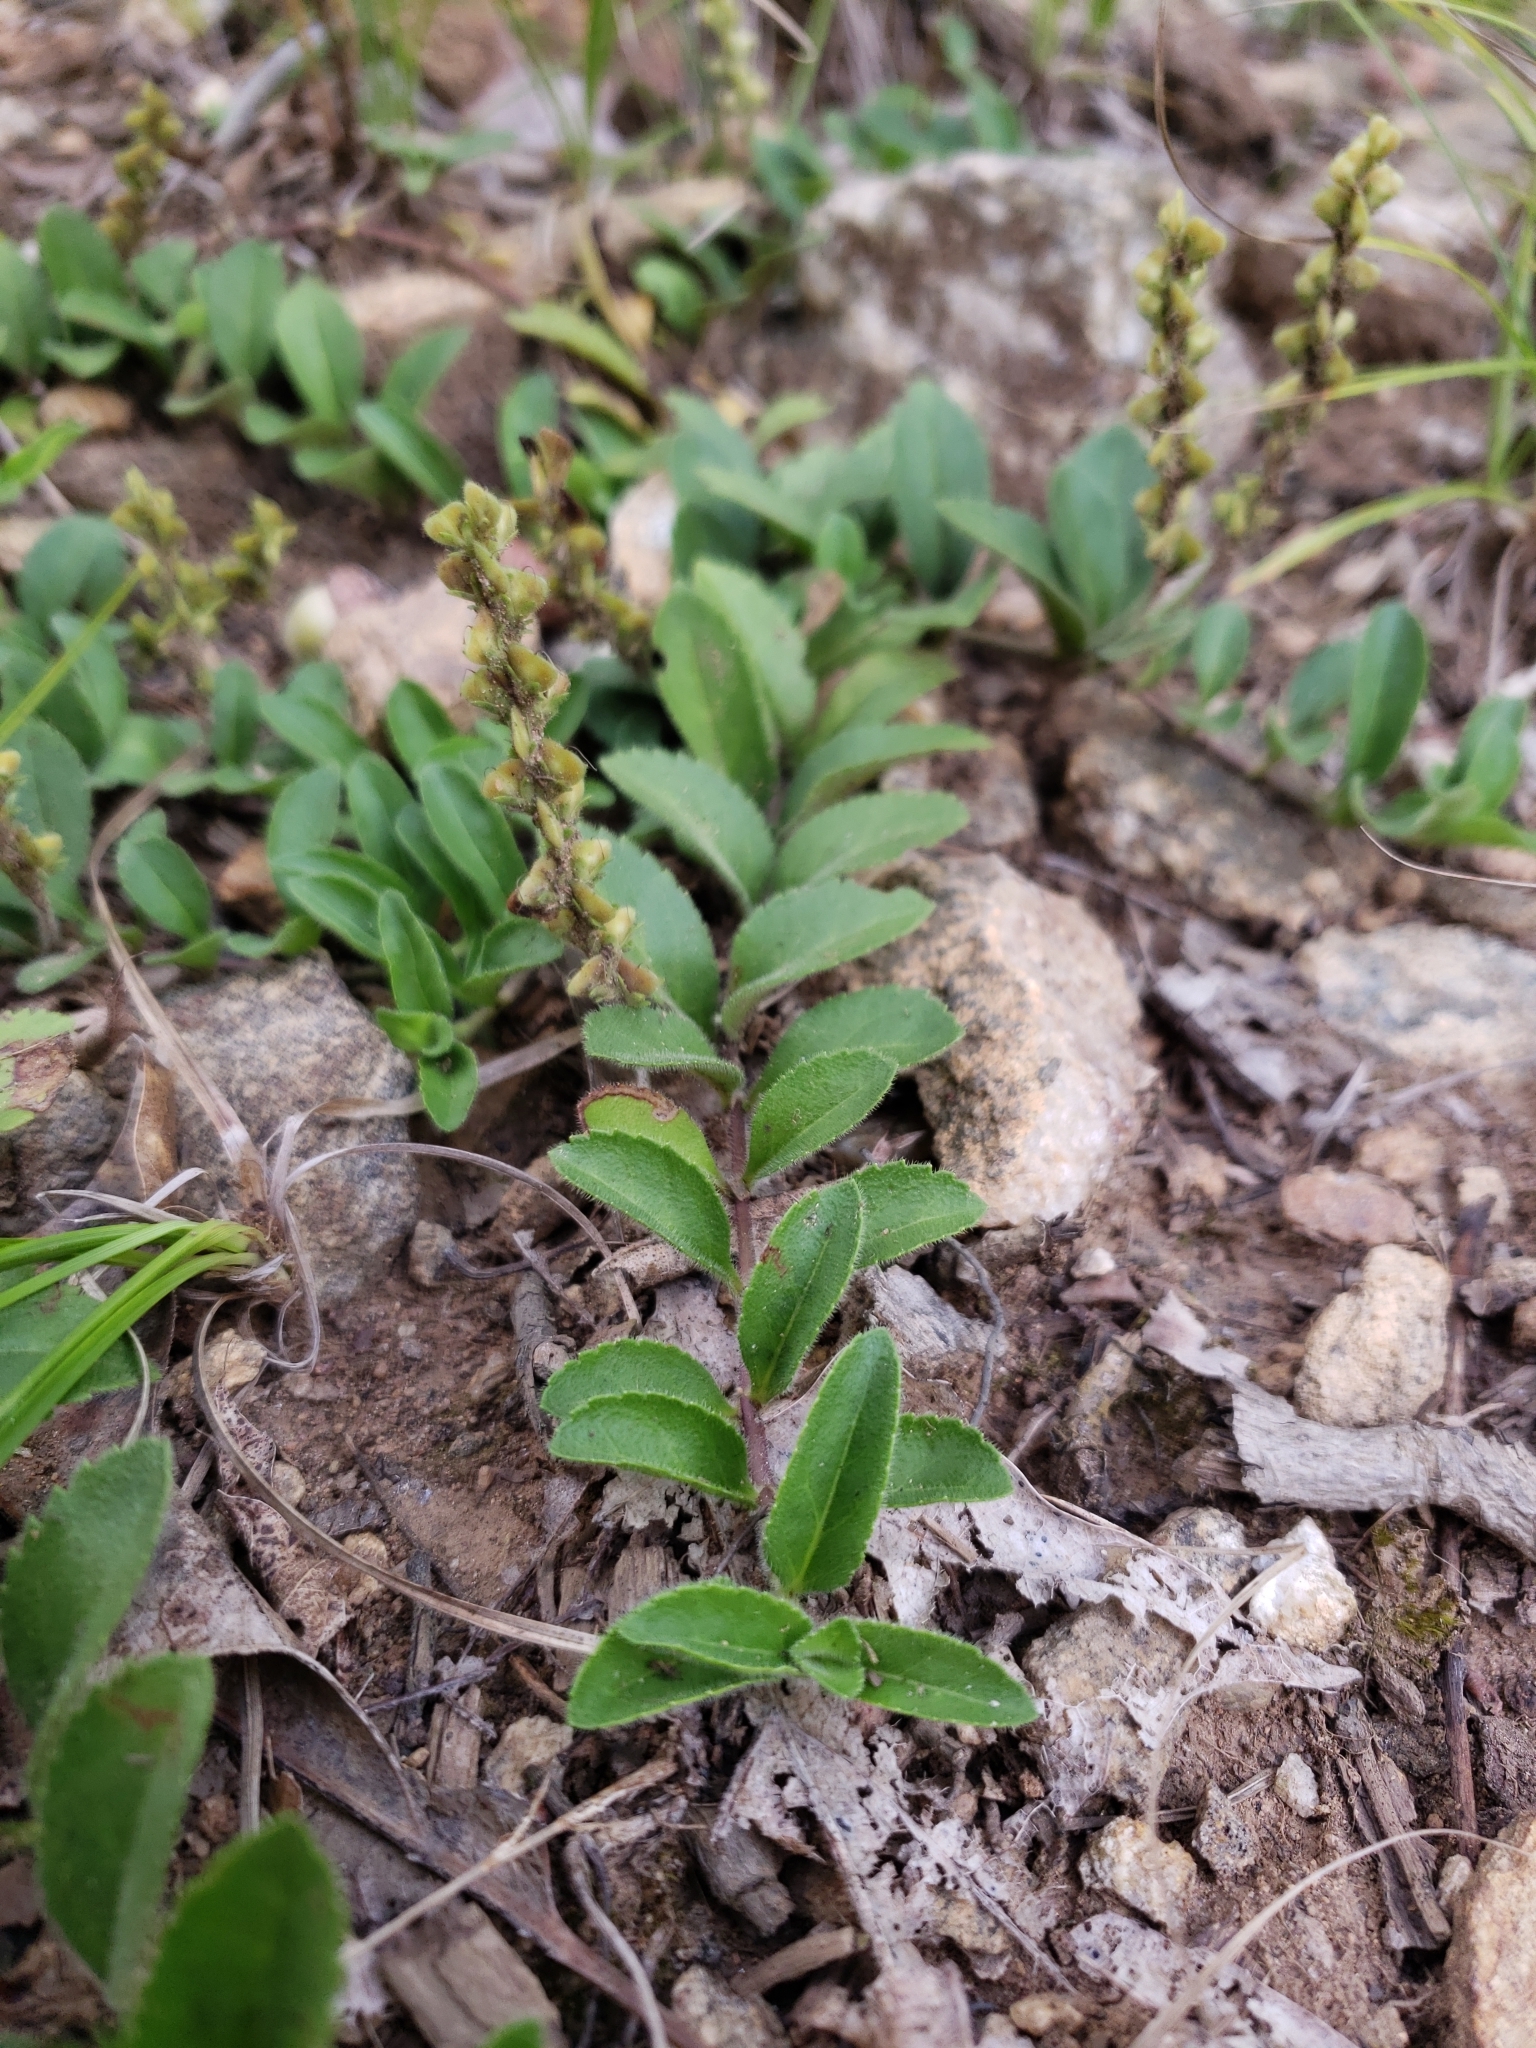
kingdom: Plantae
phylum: Tracheophyta
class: Magnoliopsida
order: Lamiales
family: Plantaginaceae
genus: Veronica
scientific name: Veronica officinalis
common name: Common speedwell
